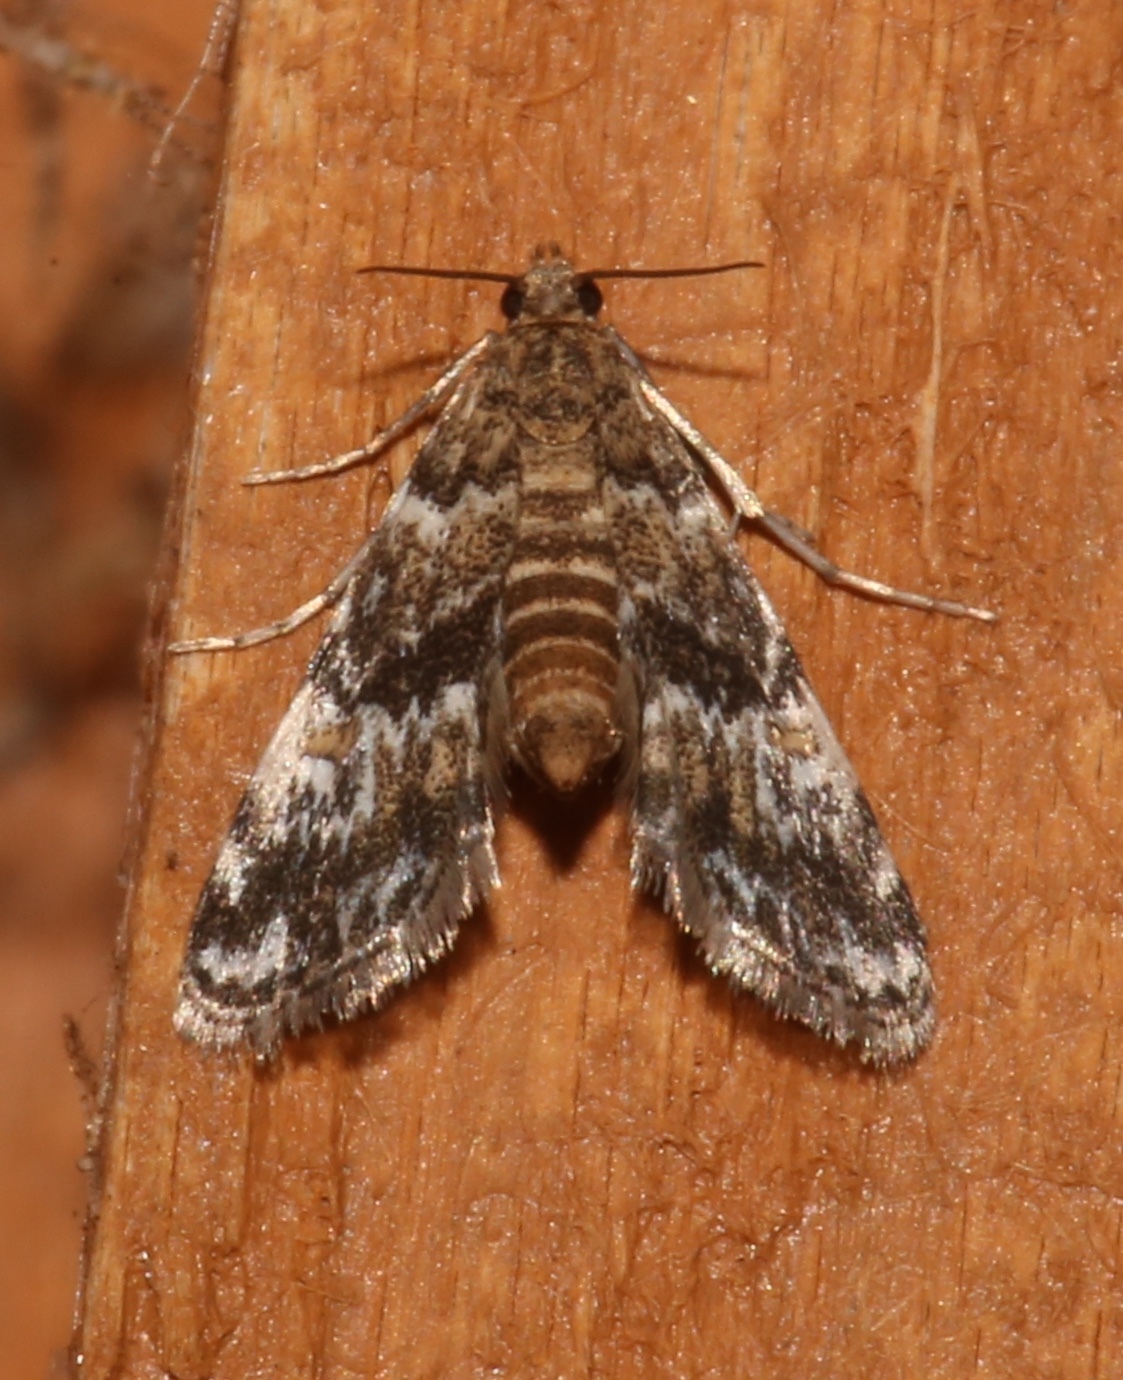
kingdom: Animalia
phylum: Arthropoda
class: Insecta
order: Lepidoptera
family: Crambidae
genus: Elophila
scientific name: Elophila obliteralis
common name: Waterlily leafcutter moth
